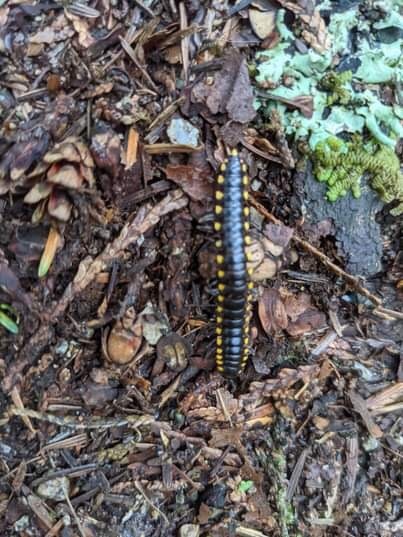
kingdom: Animalia
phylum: Arthropoda
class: Diplopoda
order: Polydesmida
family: Xystodesmidae
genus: Harpaphe
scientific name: Harpaphe haydeniana
